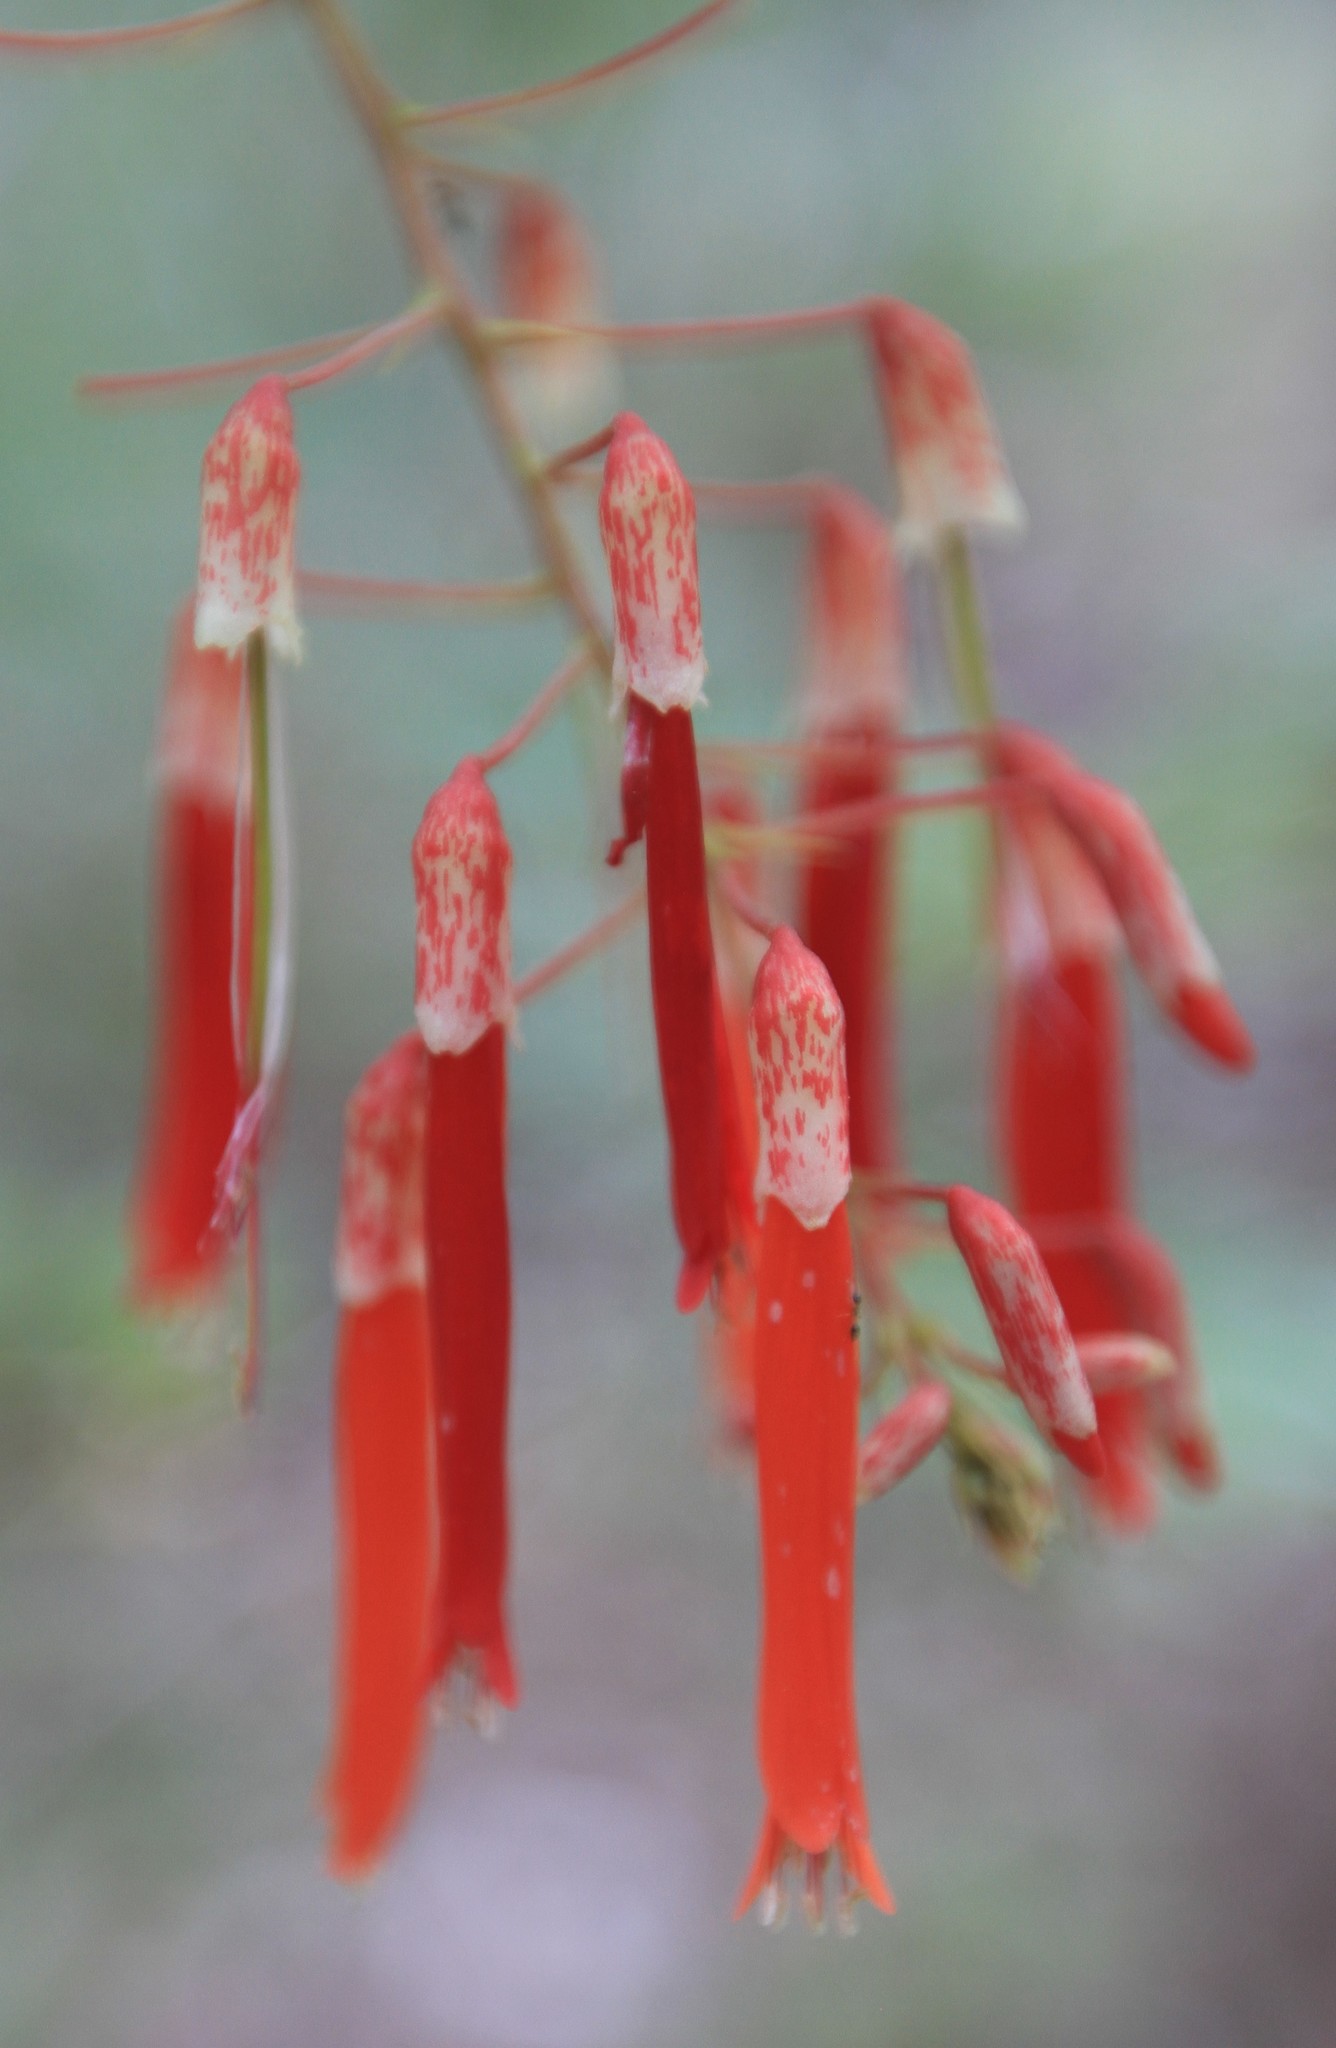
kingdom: Plantae
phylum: Tracheophyta
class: Magnoliopsida
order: Fabales
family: Fabaceae
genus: Poitea
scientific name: Poitea multiflora
